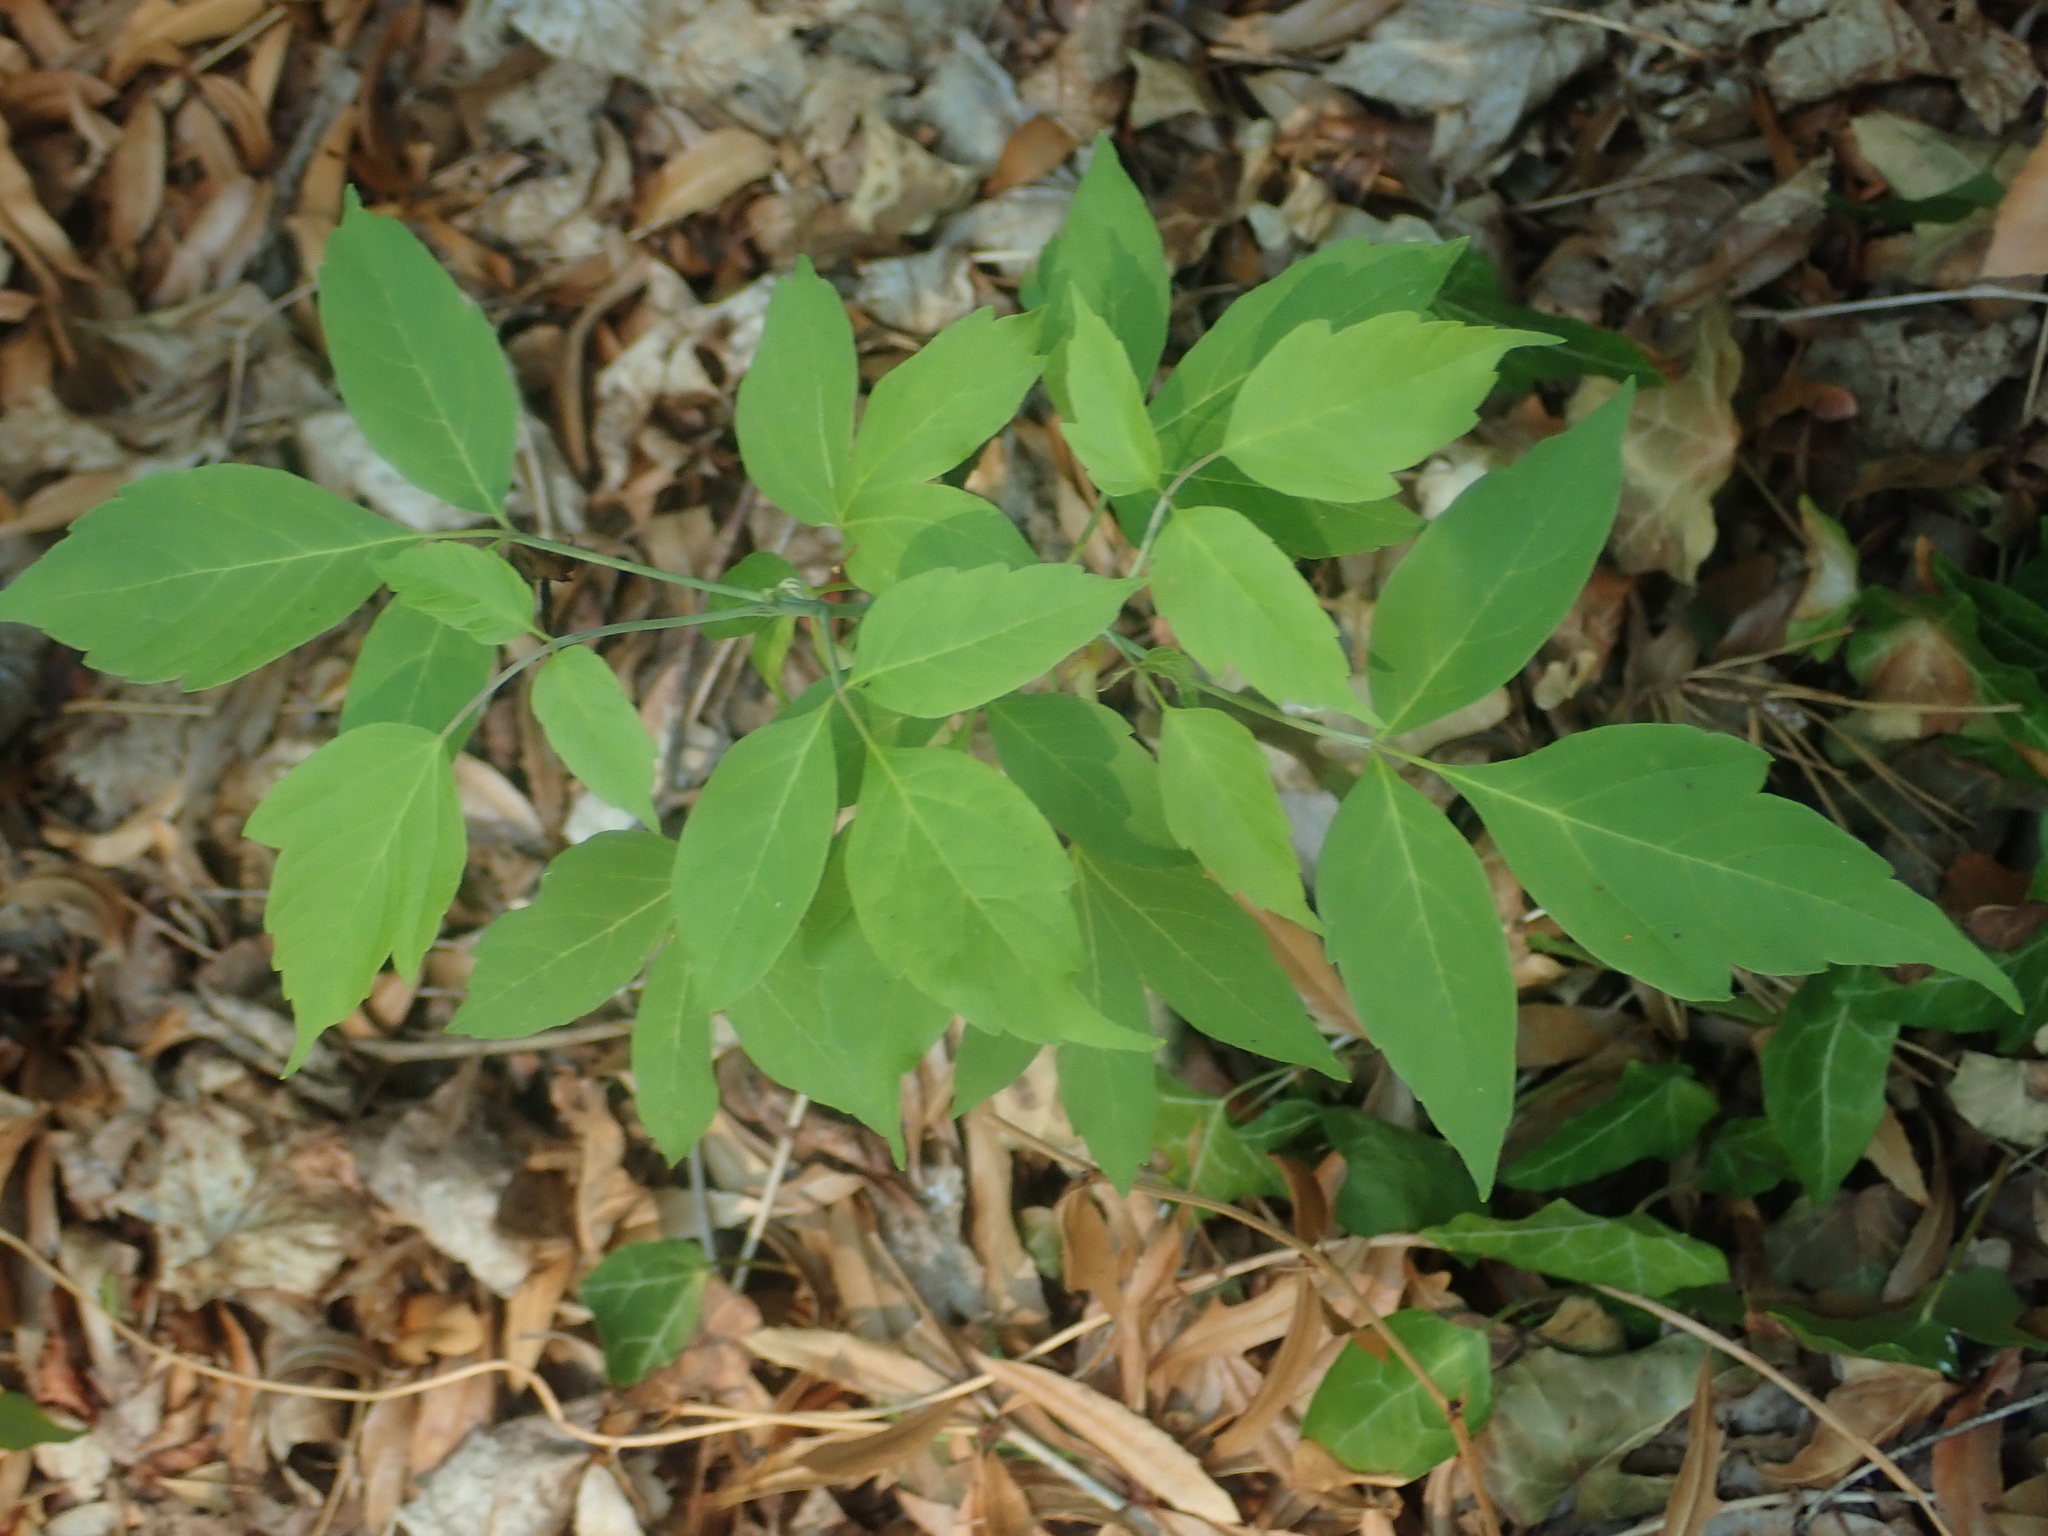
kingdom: Plantae
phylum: Tracheophyta
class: Magnoliopsida
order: Sapindales
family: Sapindaceae
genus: Acer
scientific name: Acer negundo
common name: Ashleaf maple
